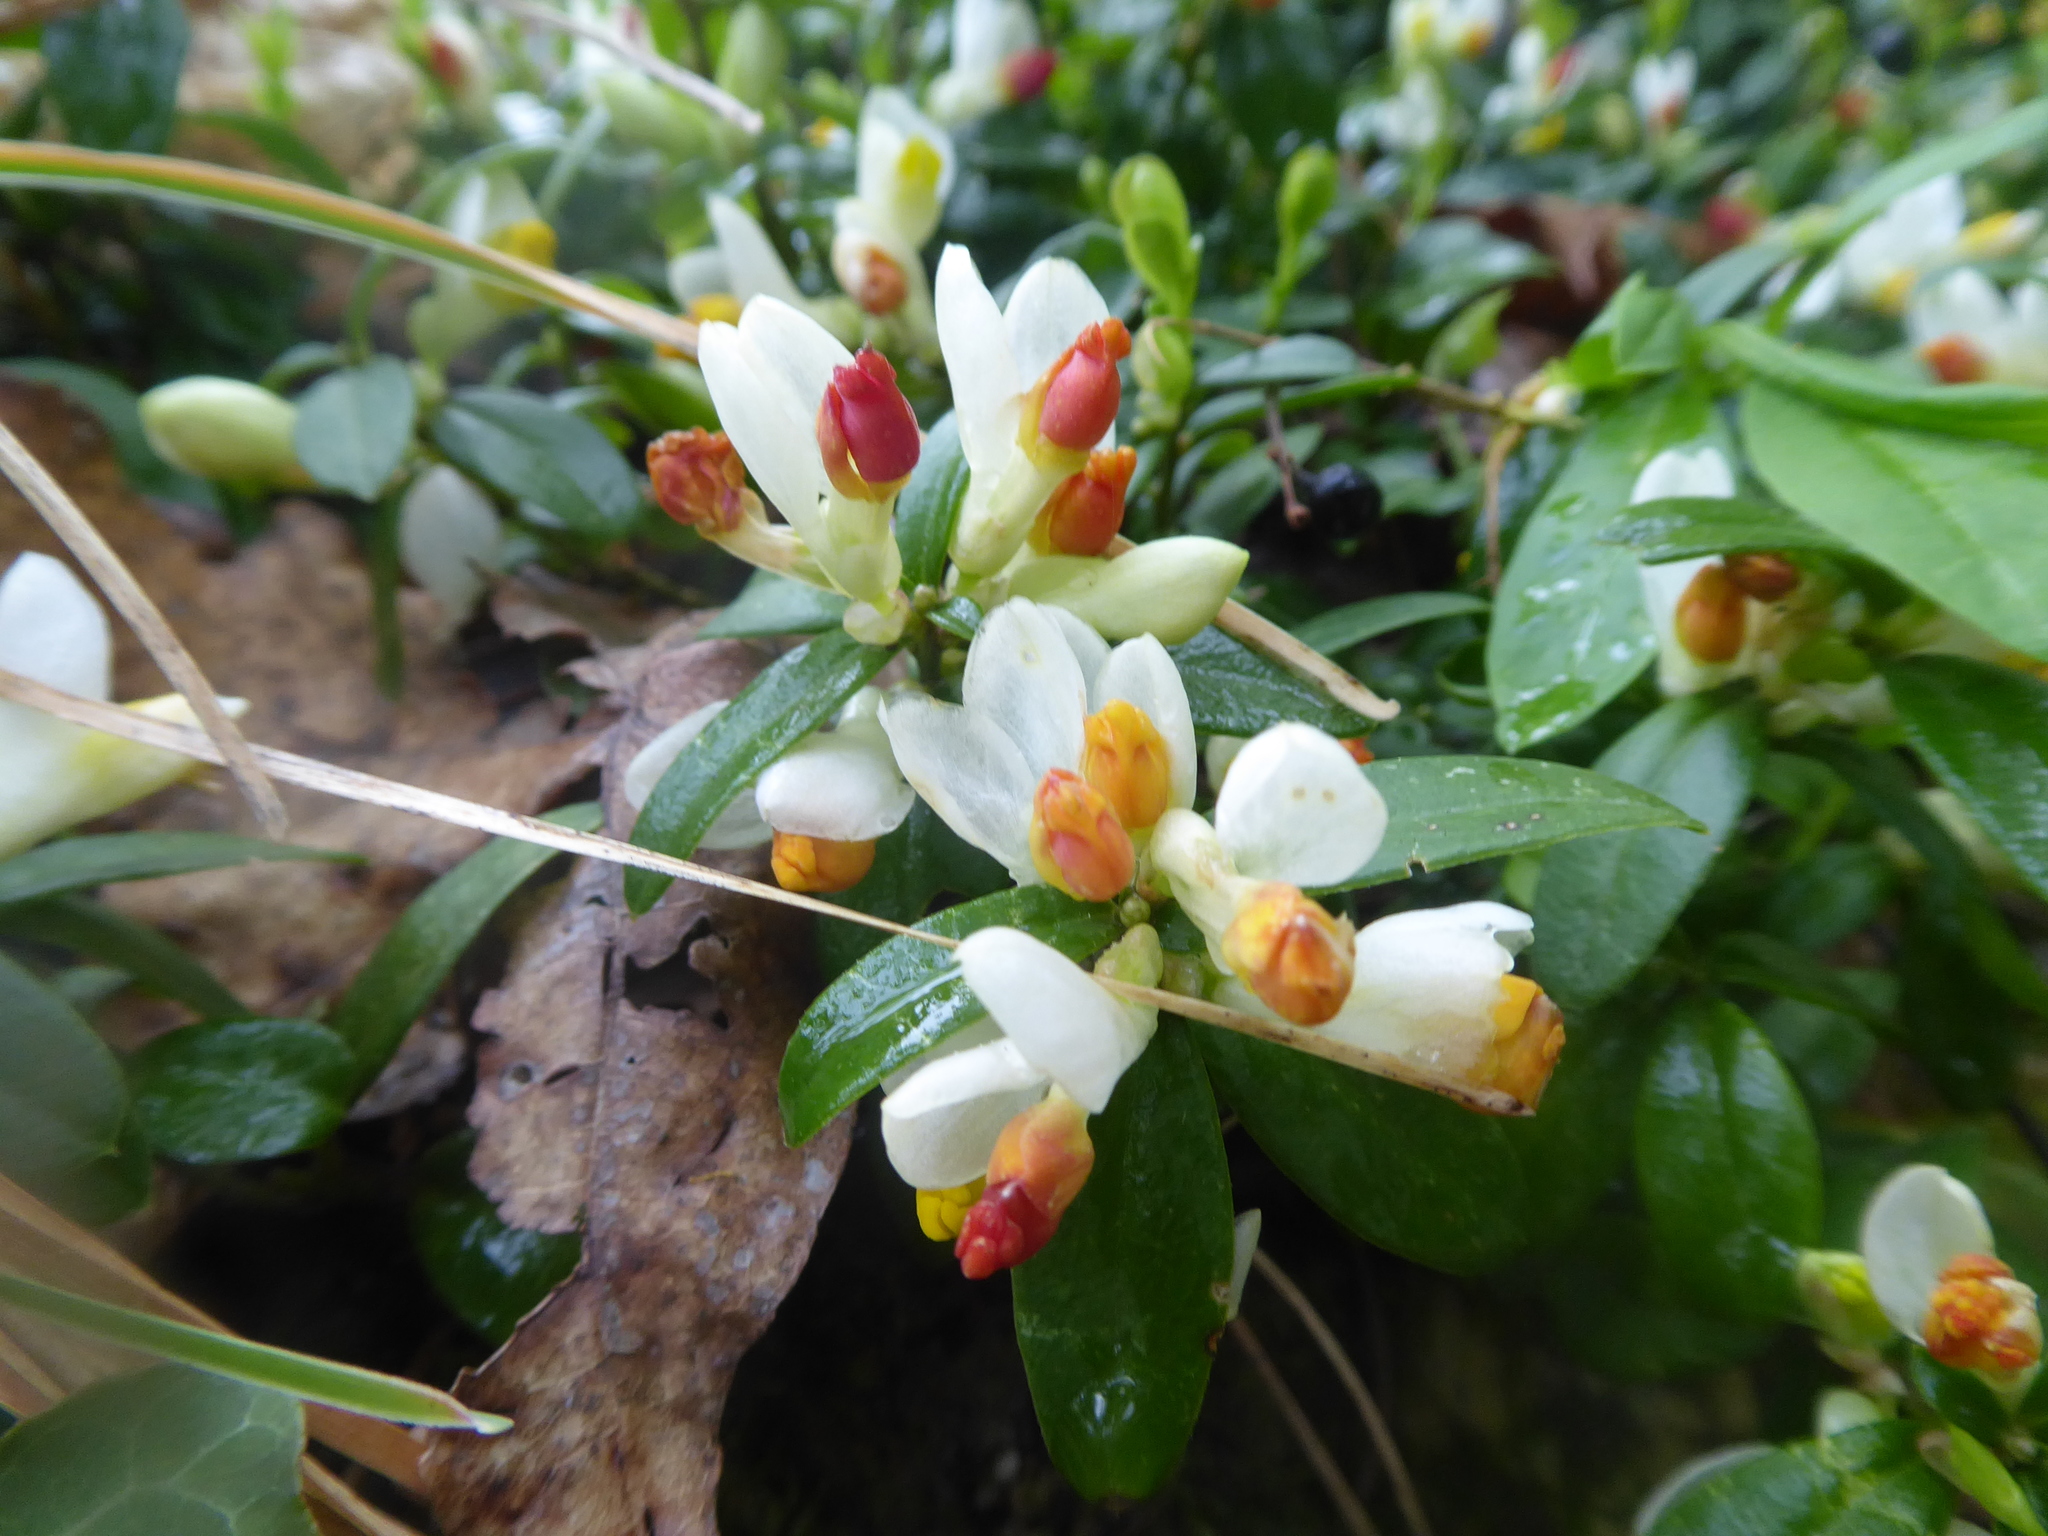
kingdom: Plantae
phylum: Tracheophyta
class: Magnoliopsida
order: Fabales
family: Polygalaceae
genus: Polygaloides
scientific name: Polygaloides chamaebuxus
